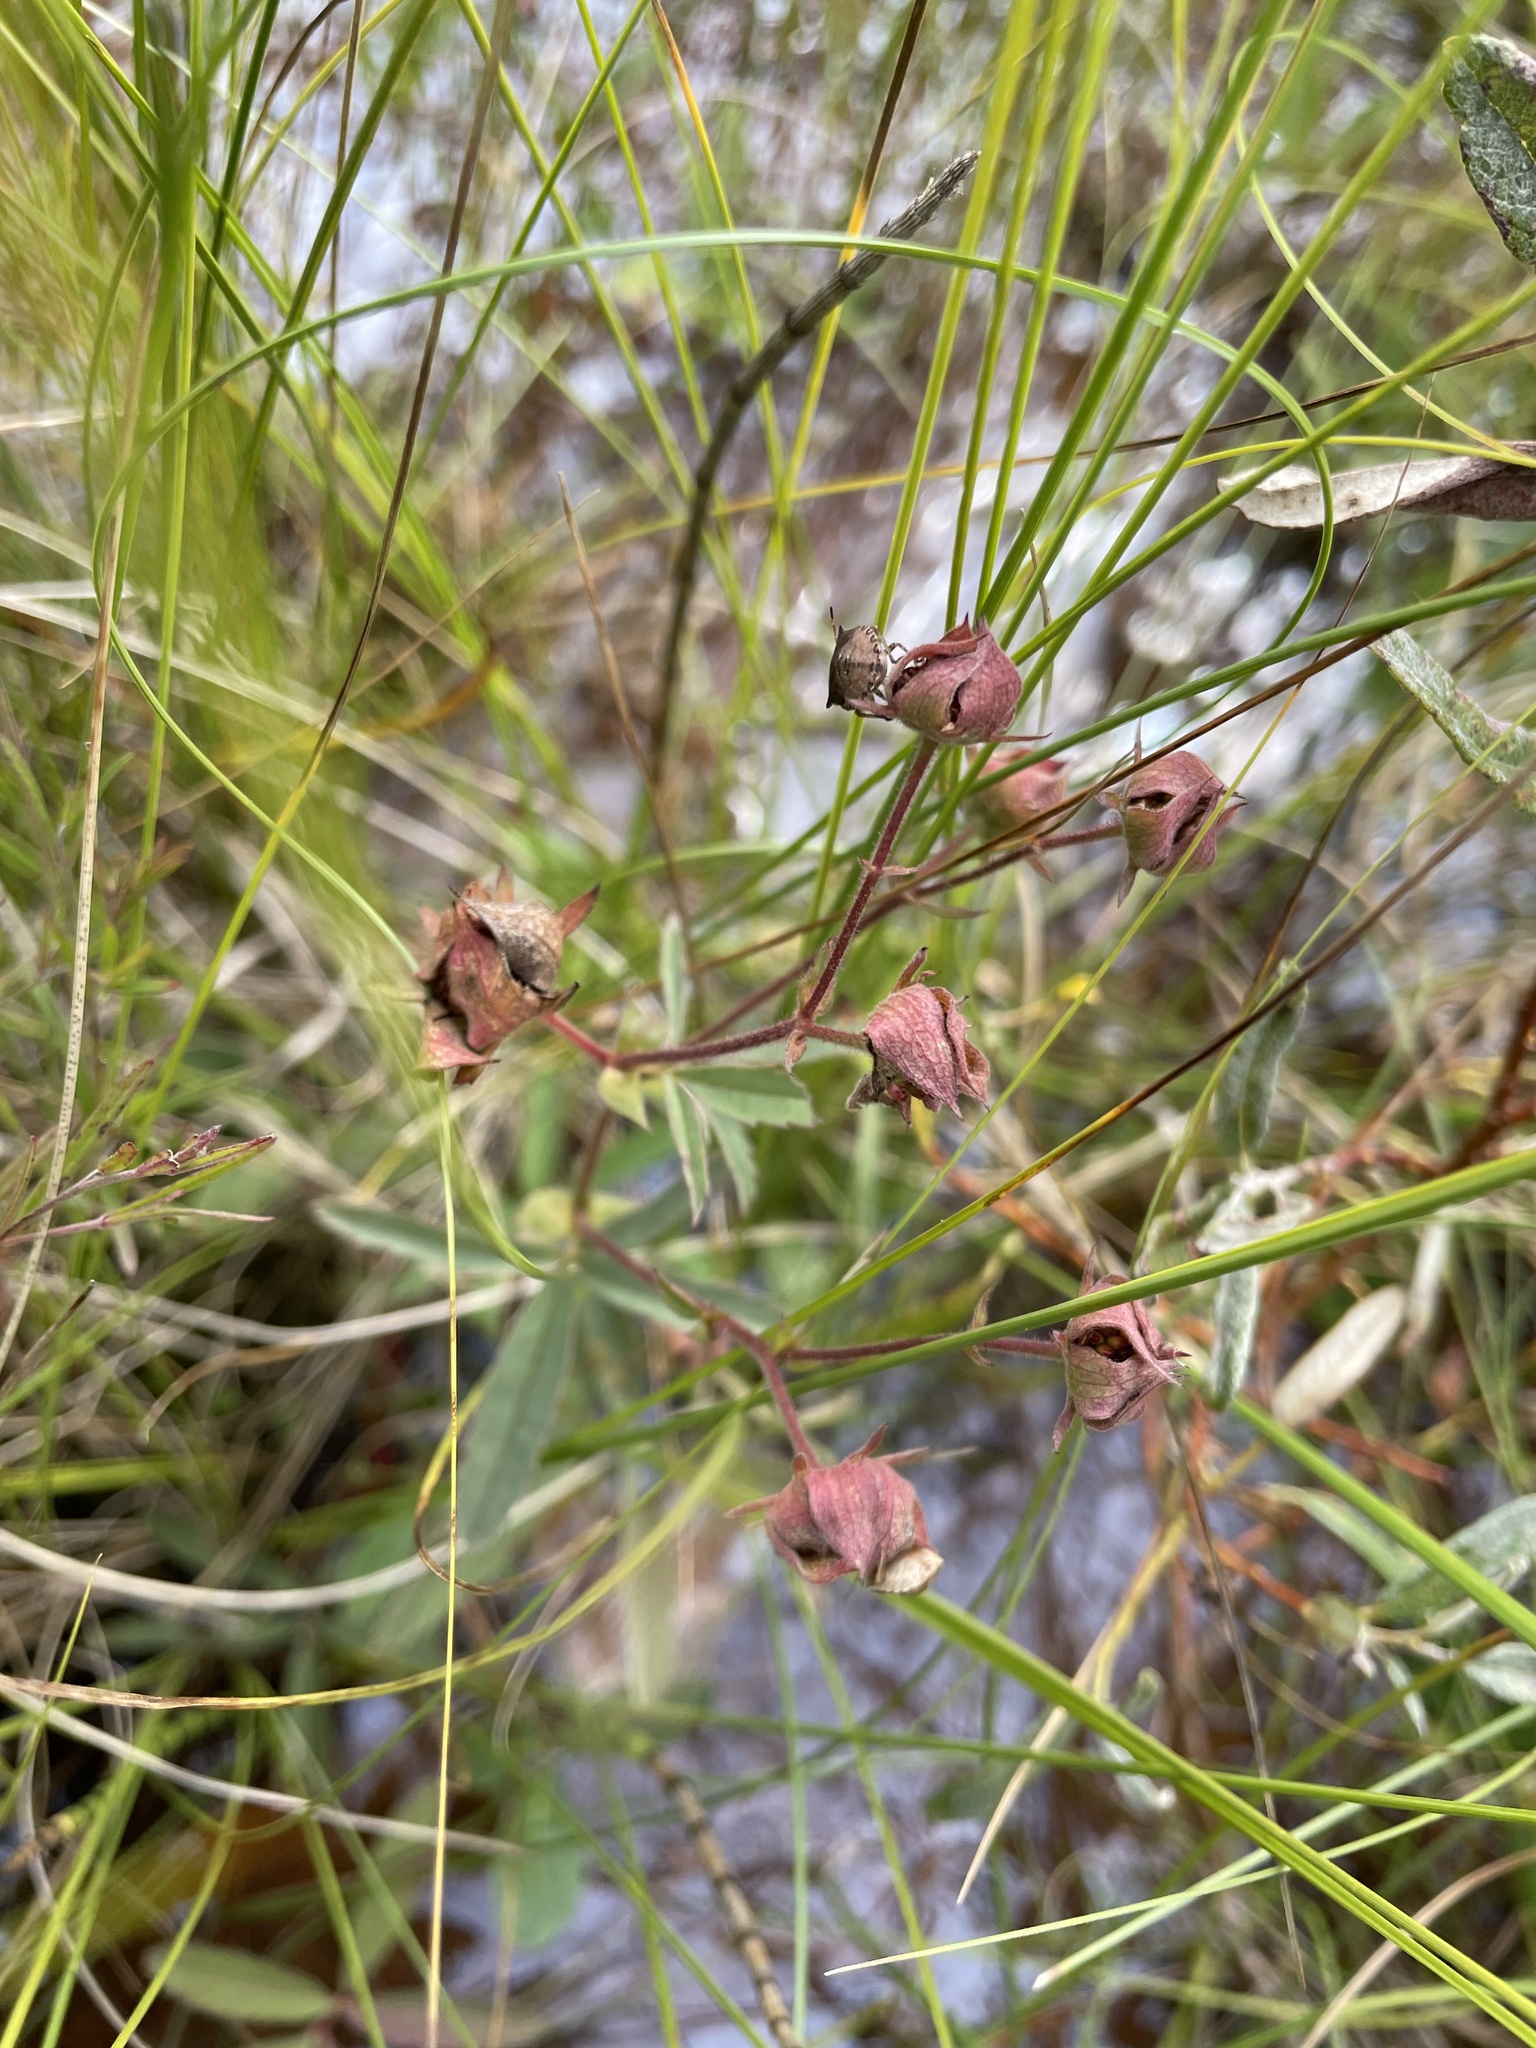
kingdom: Plantae
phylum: Tracheophyta
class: Magnoliopsida
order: Rosales
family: Rosaceae
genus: Comarum
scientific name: Comarum palustre
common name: Marsh cinquefoil
